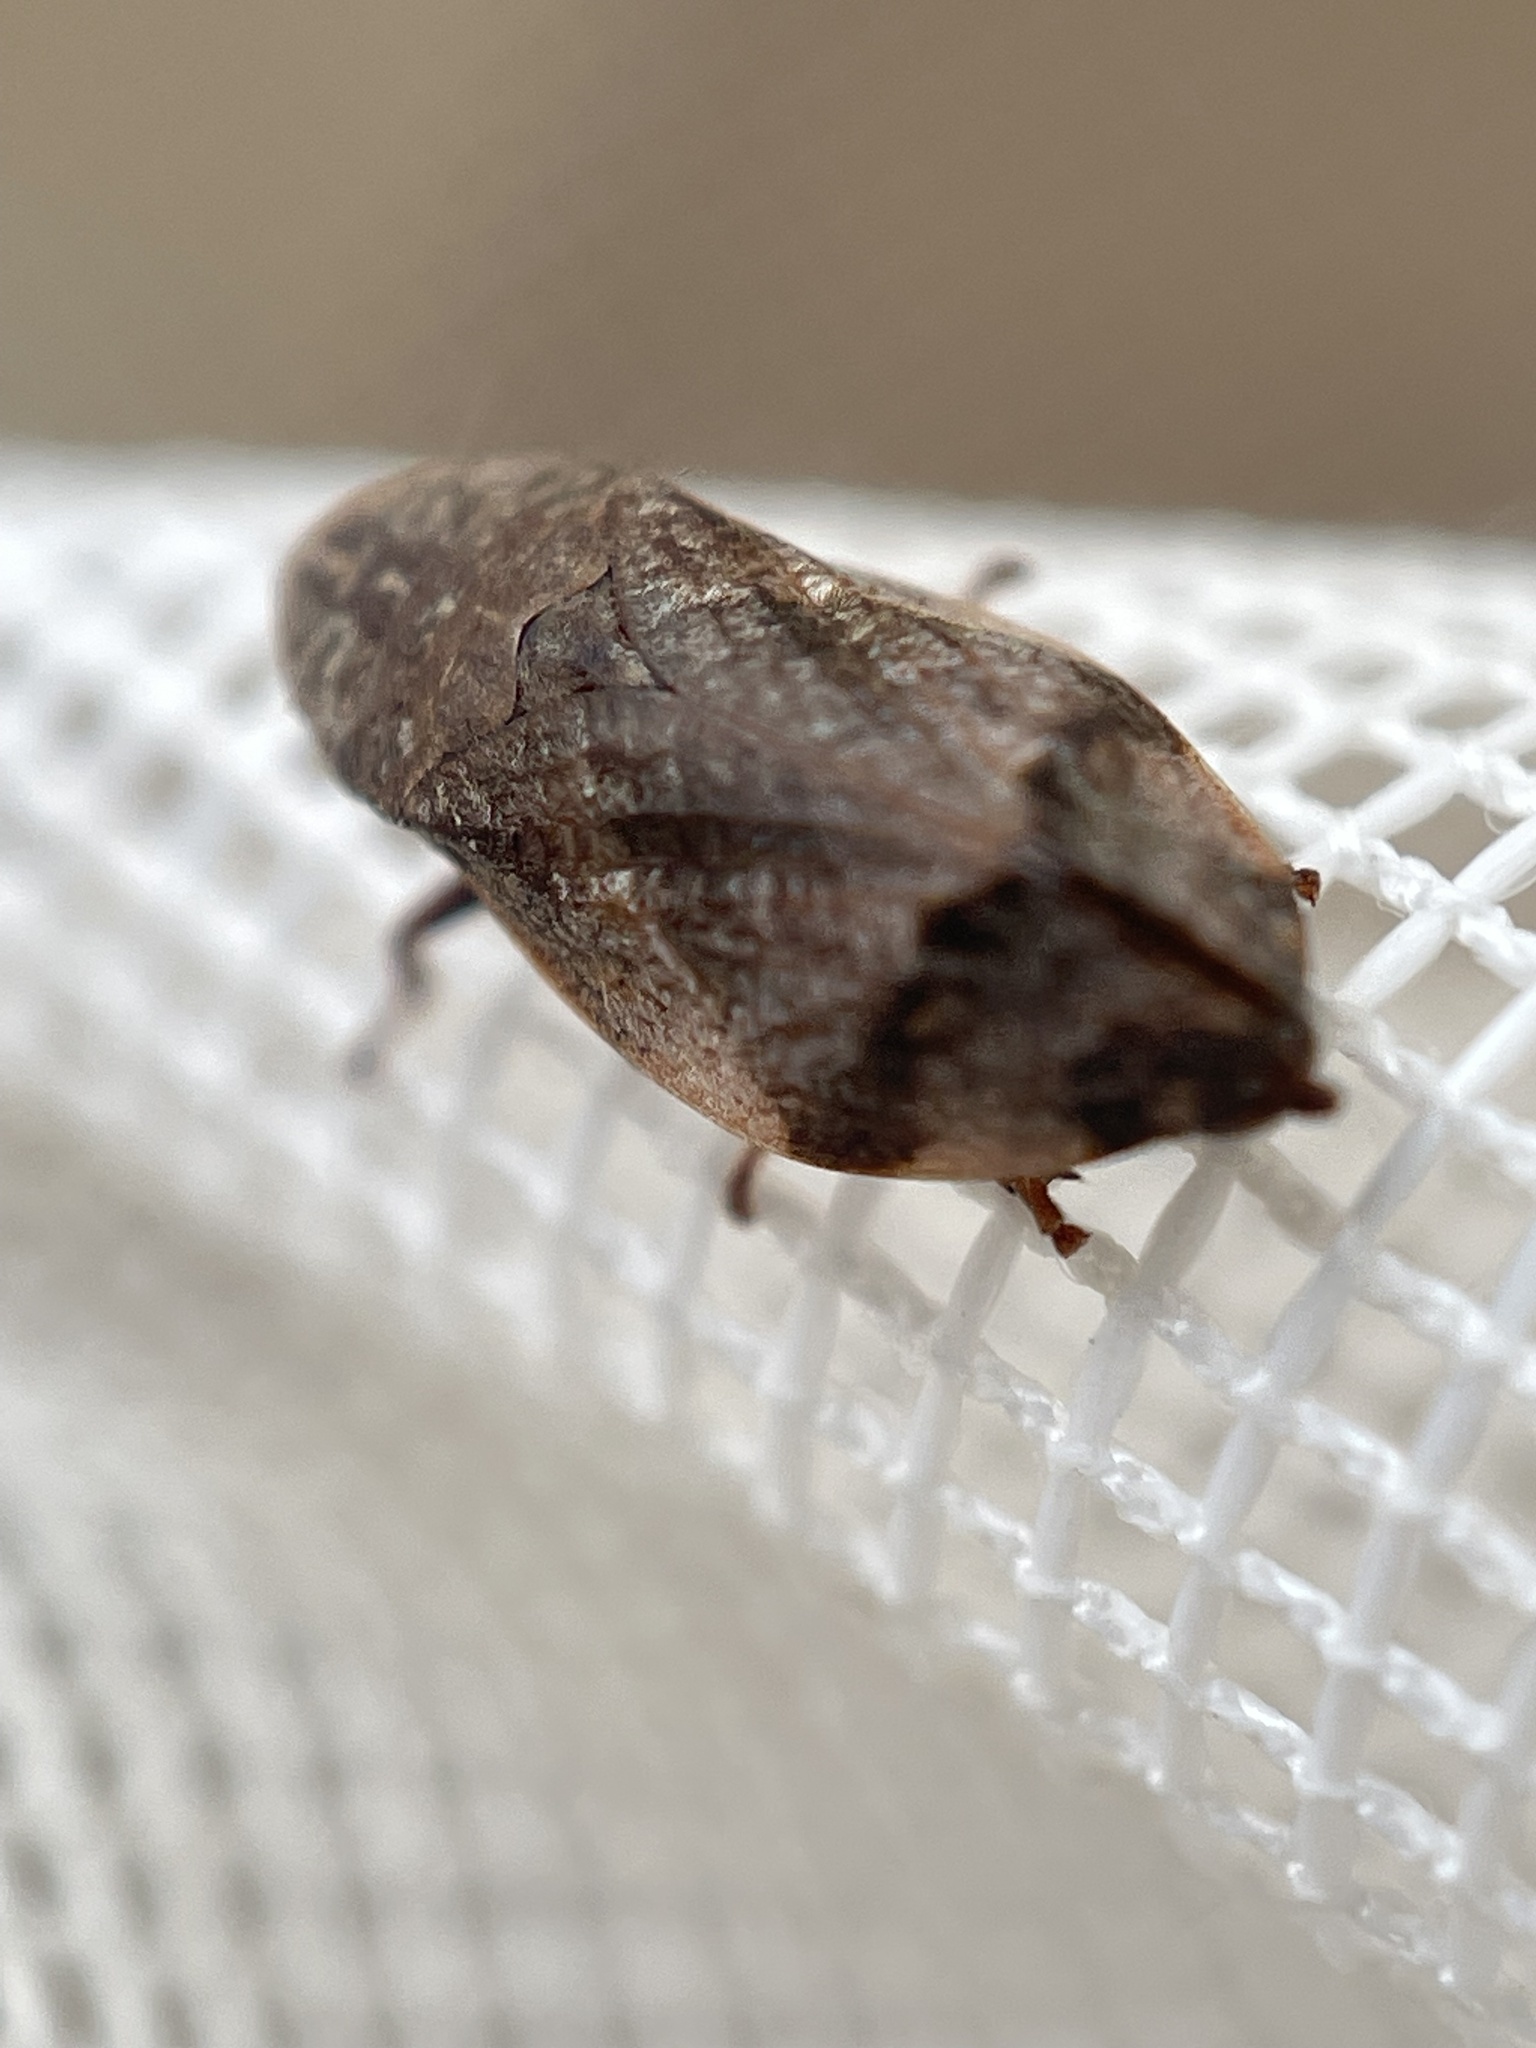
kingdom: Animalia
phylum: Arthropoda
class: Insecta
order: Hemiptera
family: Aphrophoridae
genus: Lepyronia
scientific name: Lepyronia quadrangularis
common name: Diamond-backed spittlebug
